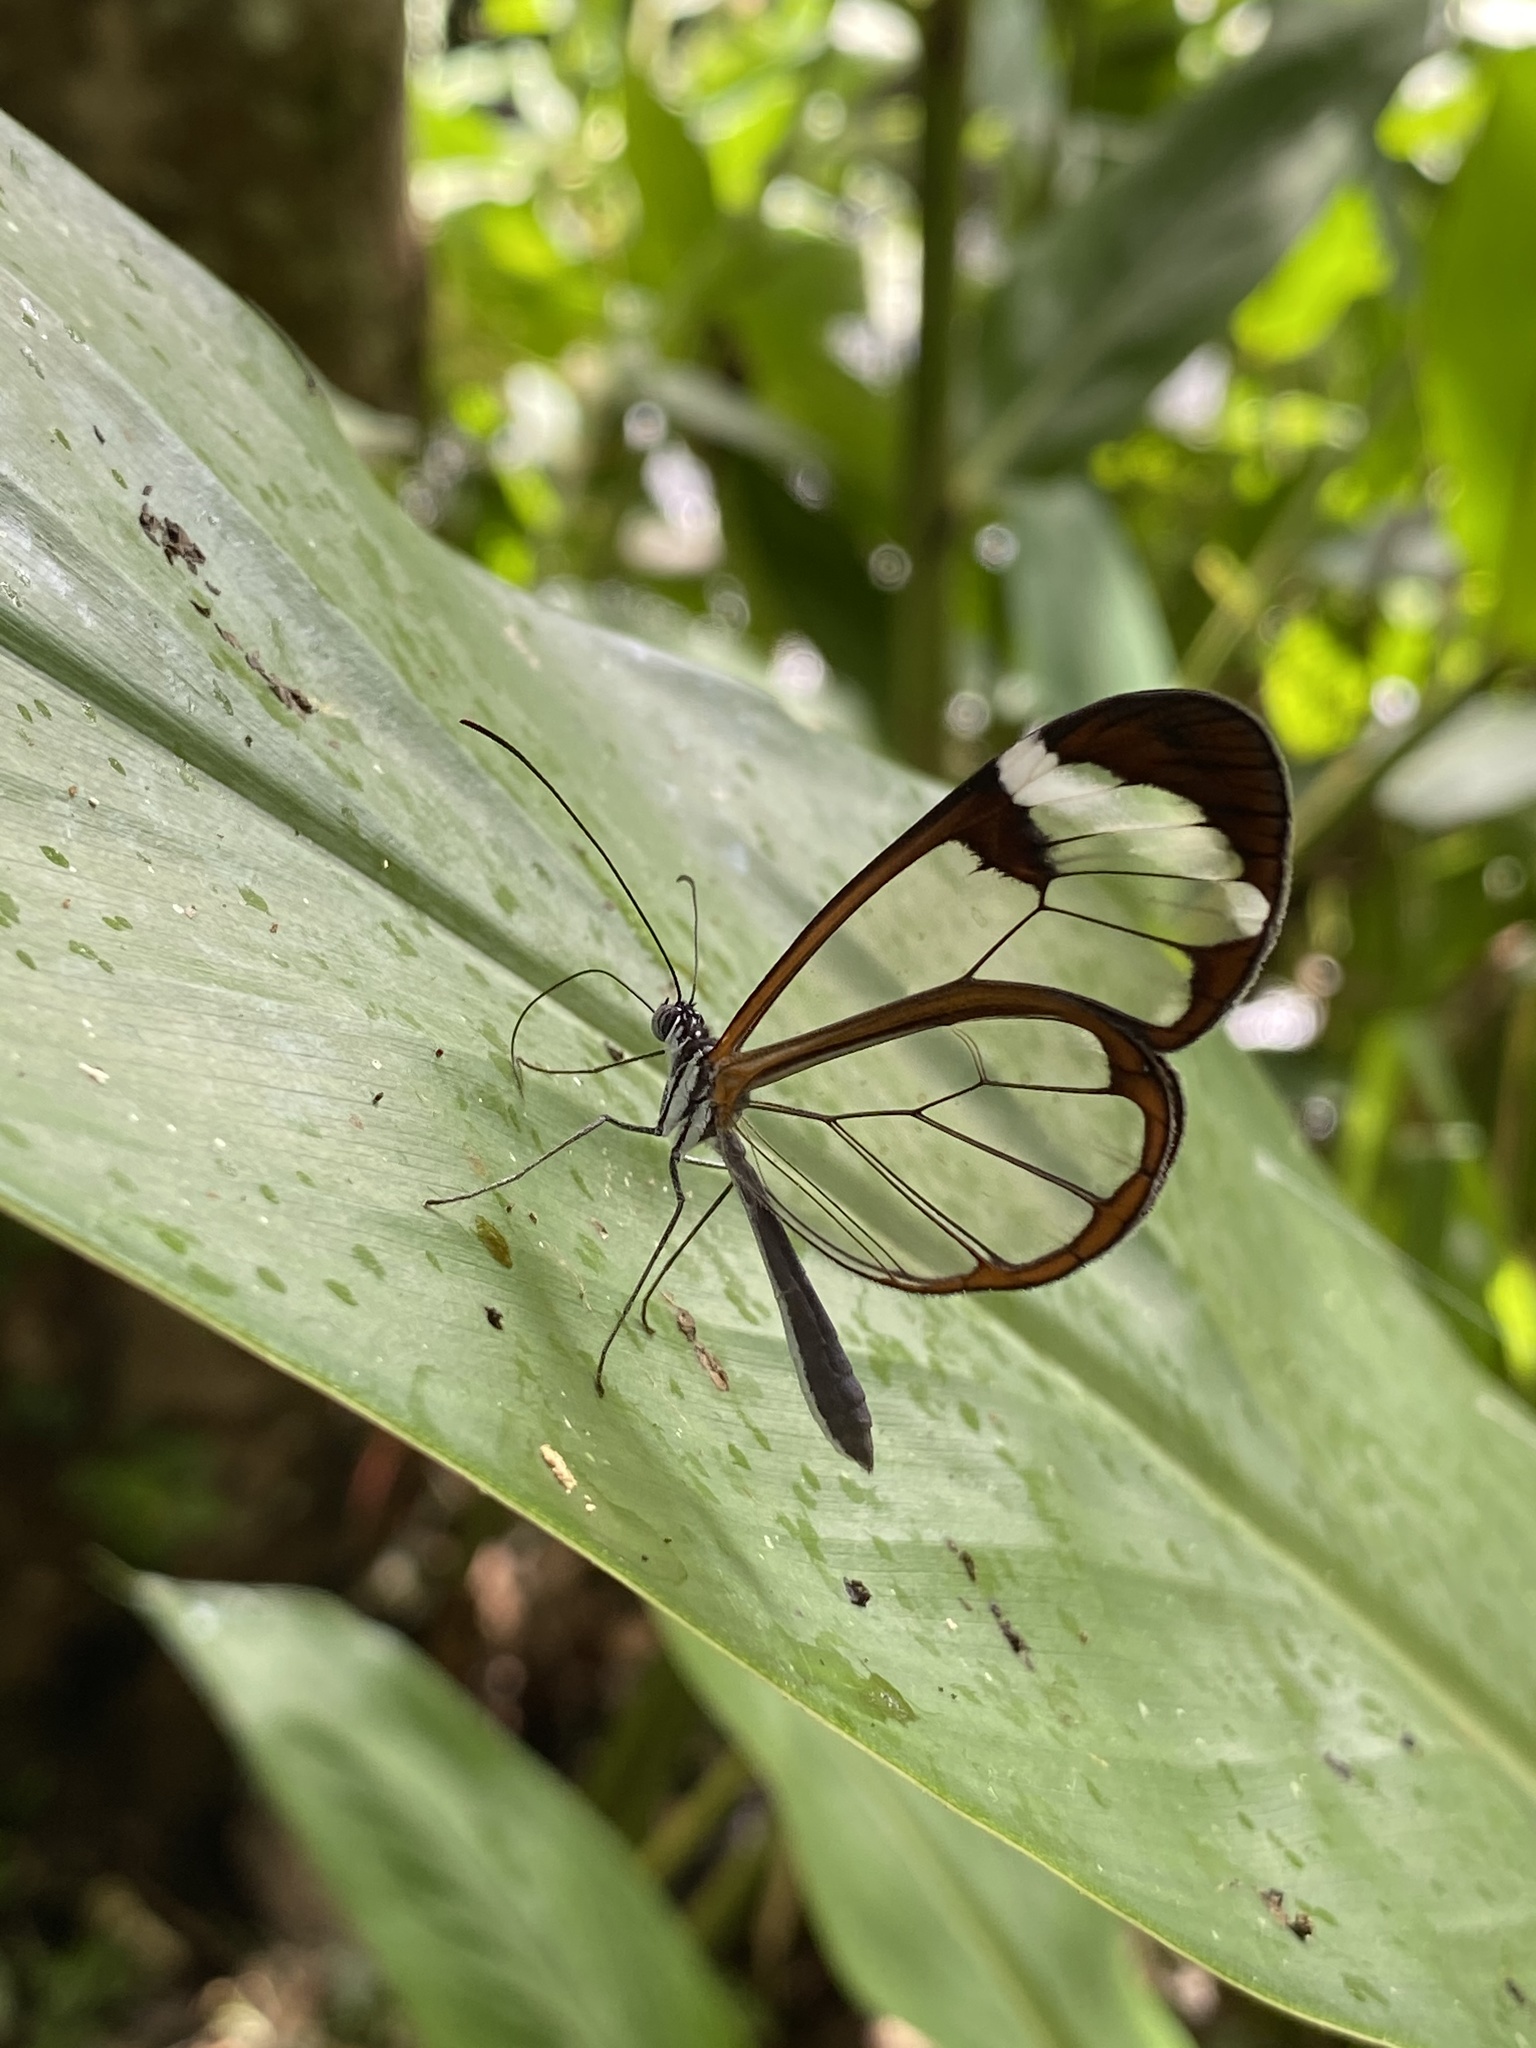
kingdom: Animalia
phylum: Arthropoda
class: Insecta
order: Lepidoptera
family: Nymphalidae
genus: Greta
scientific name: Greta morgane
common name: Thick-tipped greta
